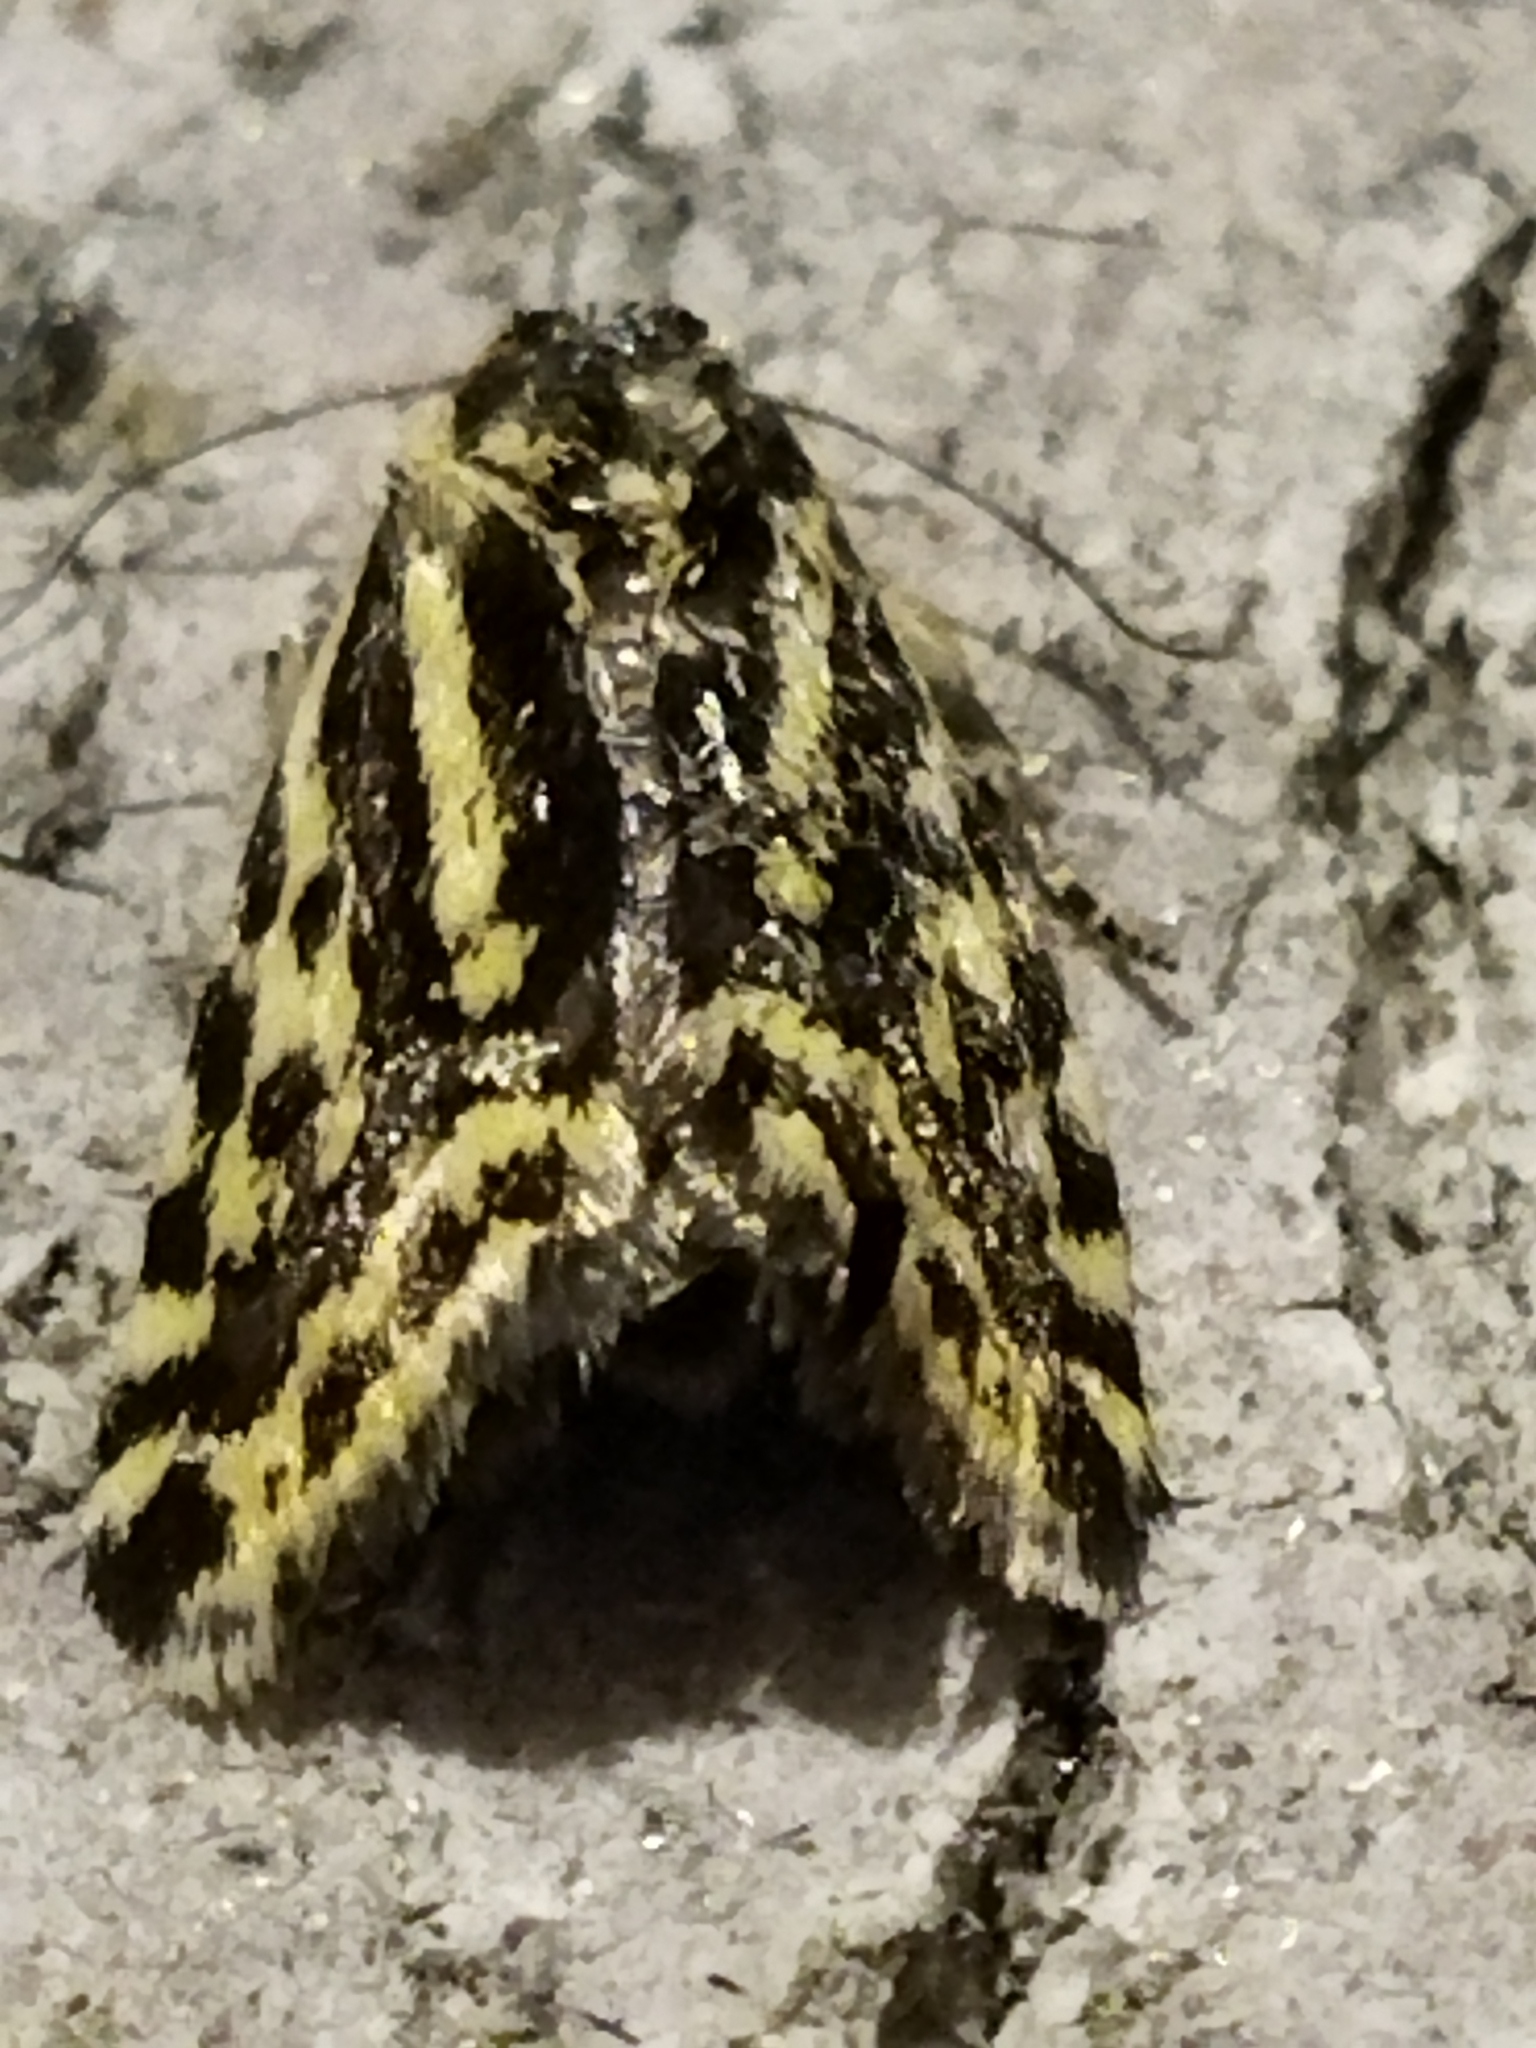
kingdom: Animalia
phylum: Arthropoda
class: Insecta
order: Lepidoptera
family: Noctuidae
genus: Acontia
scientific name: Acontia trabealis
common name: Spotted sulphur
